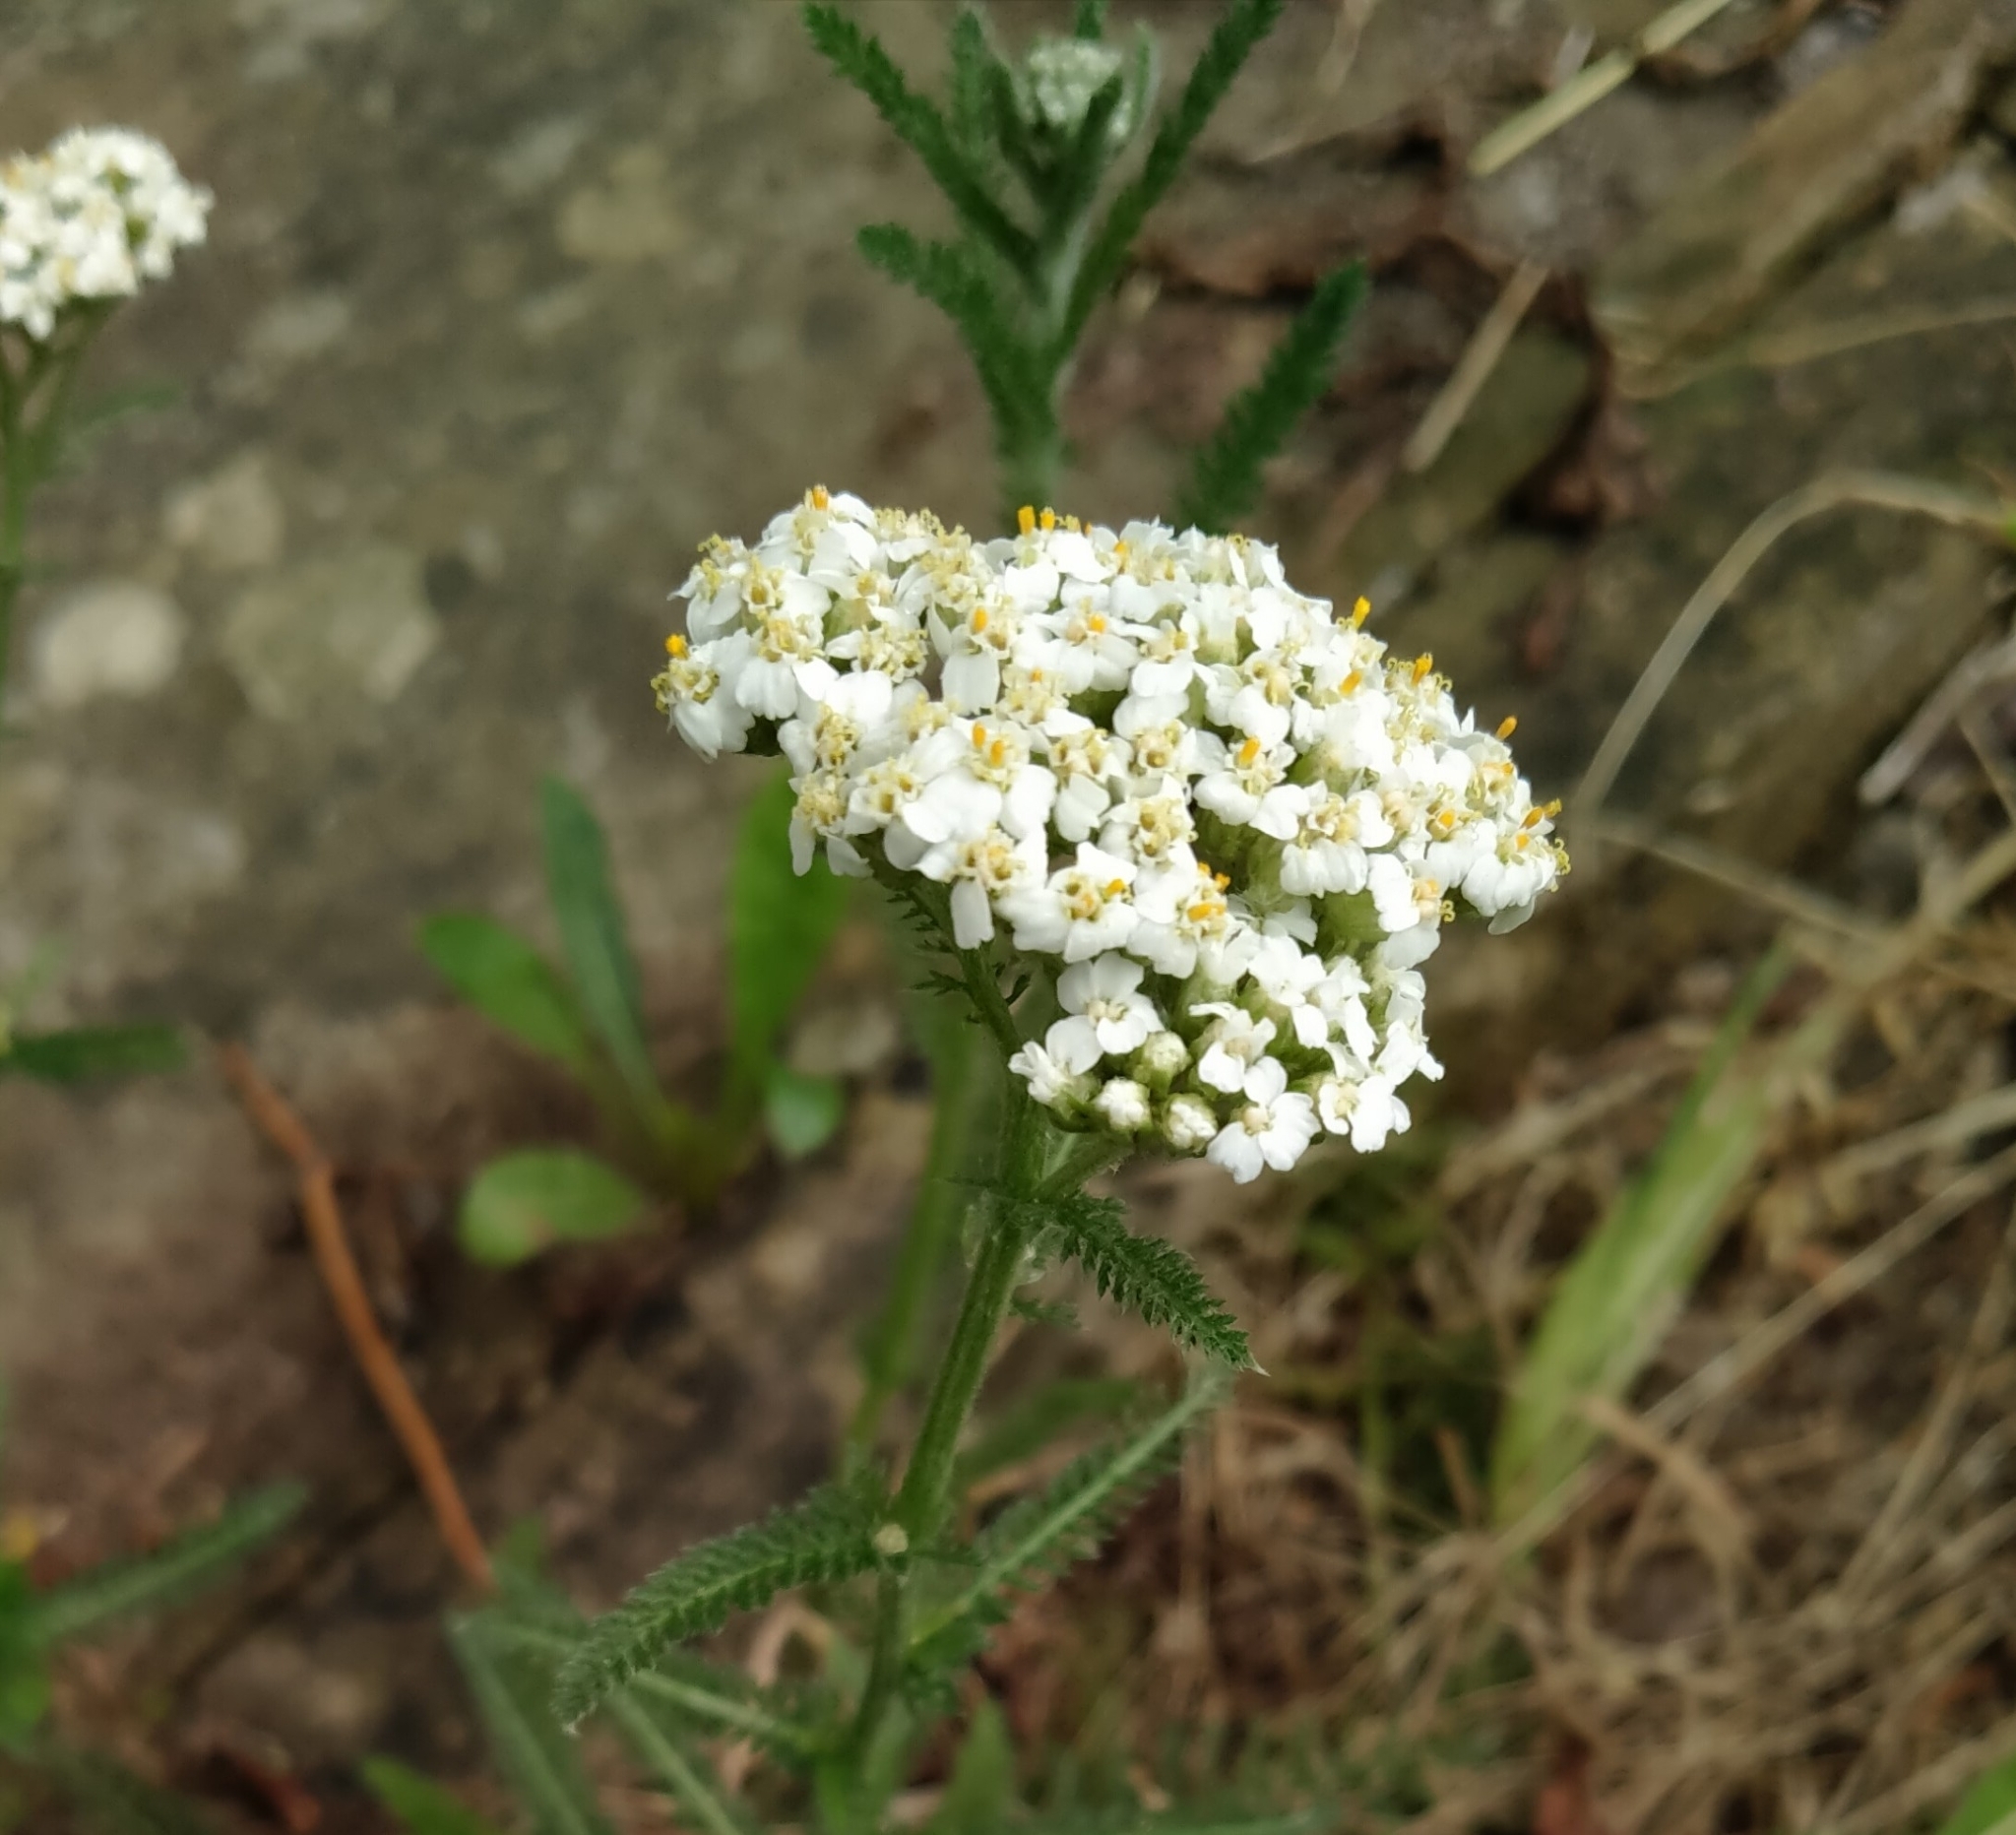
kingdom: Plantae
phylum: Tracheophyta
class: Magnoliopsida
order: Asterales
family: Asteraceae
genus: Achillea
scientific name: Achillea millefolium
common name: Yarrow
